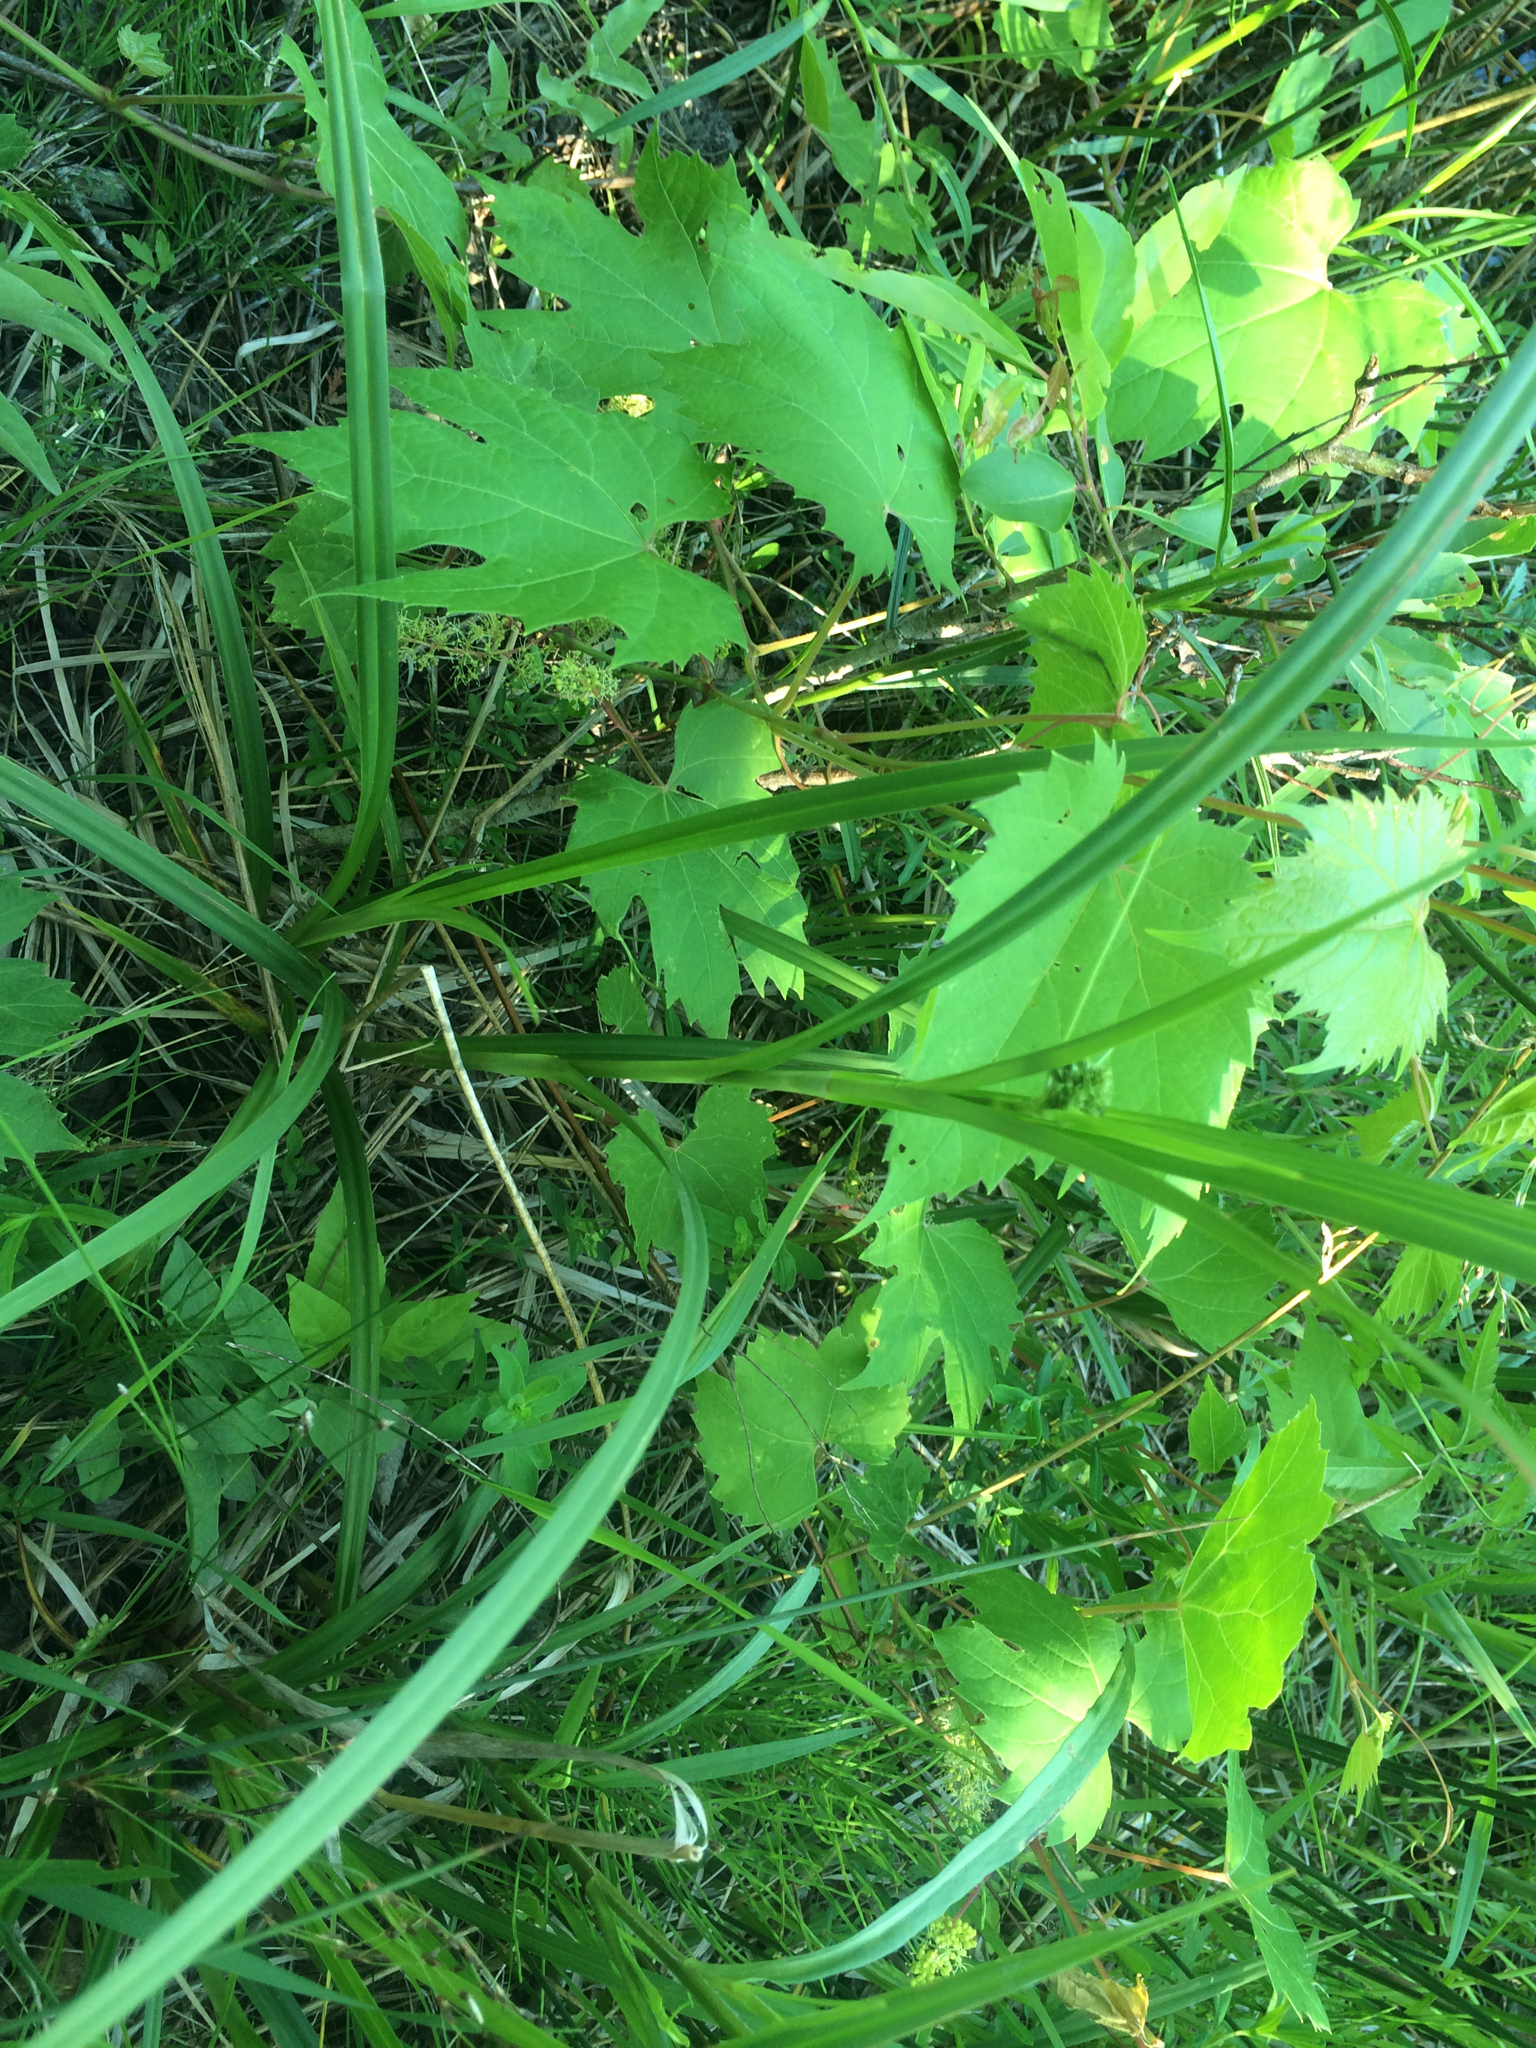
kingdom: Plantae
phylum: Tracheophyta
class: Magnoliopsida
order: Vitales
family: Vitaceae
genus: Vitis
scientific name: Vitis riparia
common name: Frost grape
